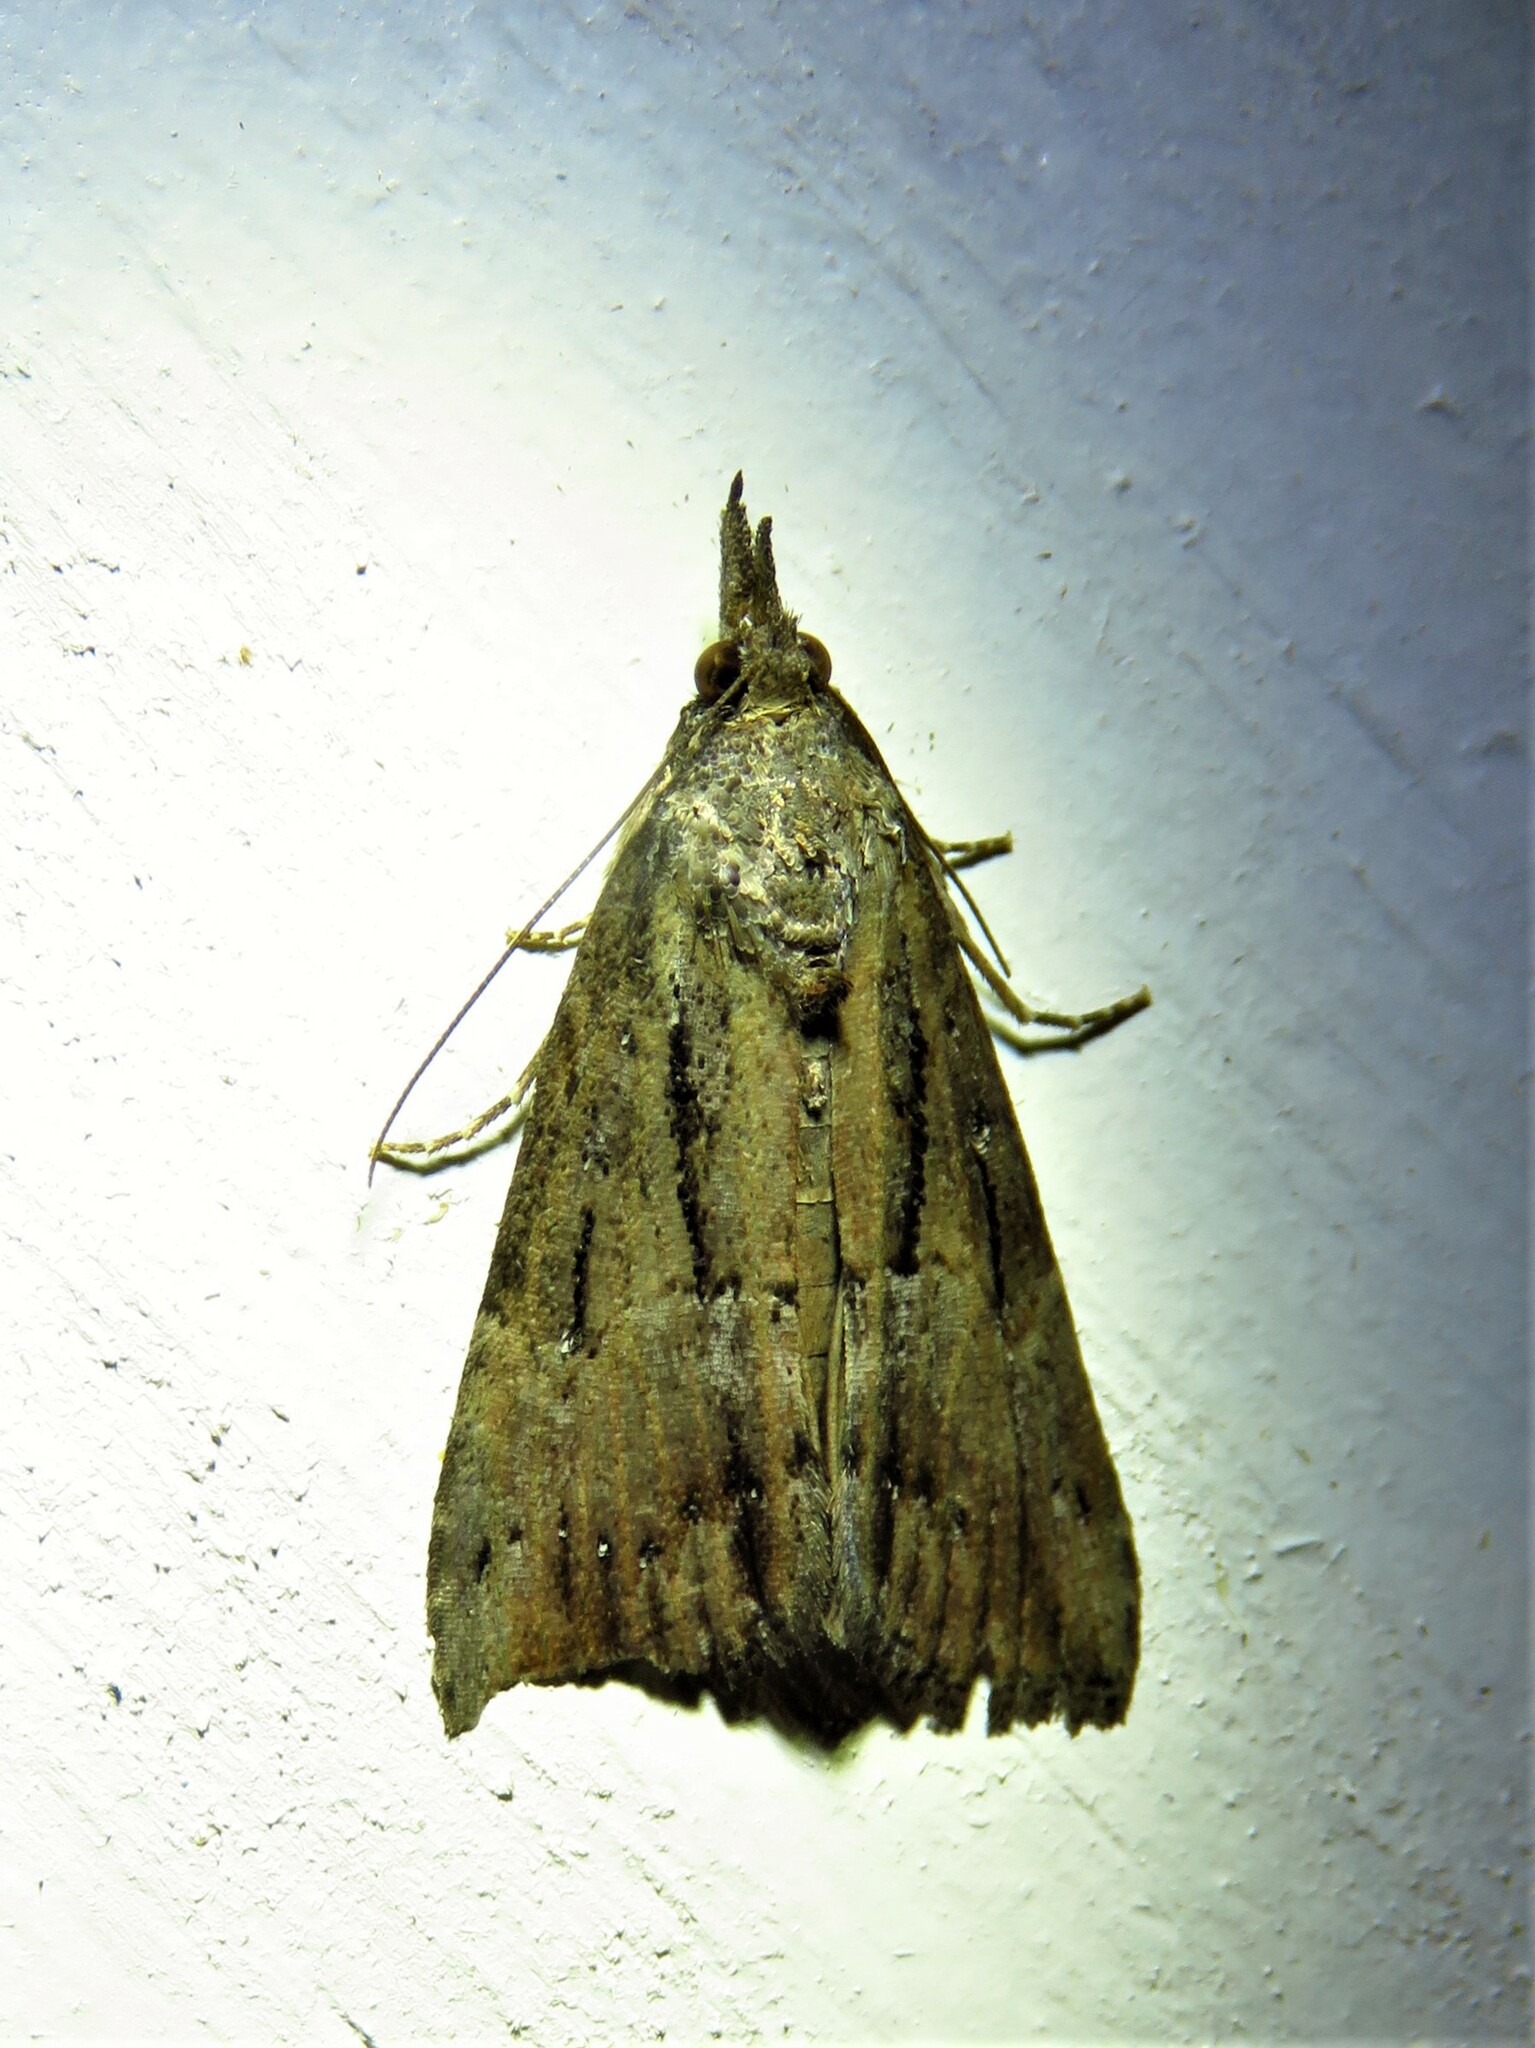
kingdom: Animalia
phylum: Arthropoda
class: Insecta
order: Lepidoptera
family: Erebidae
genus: Hypena
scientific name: Hypena scabra
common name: Green cloverworm
